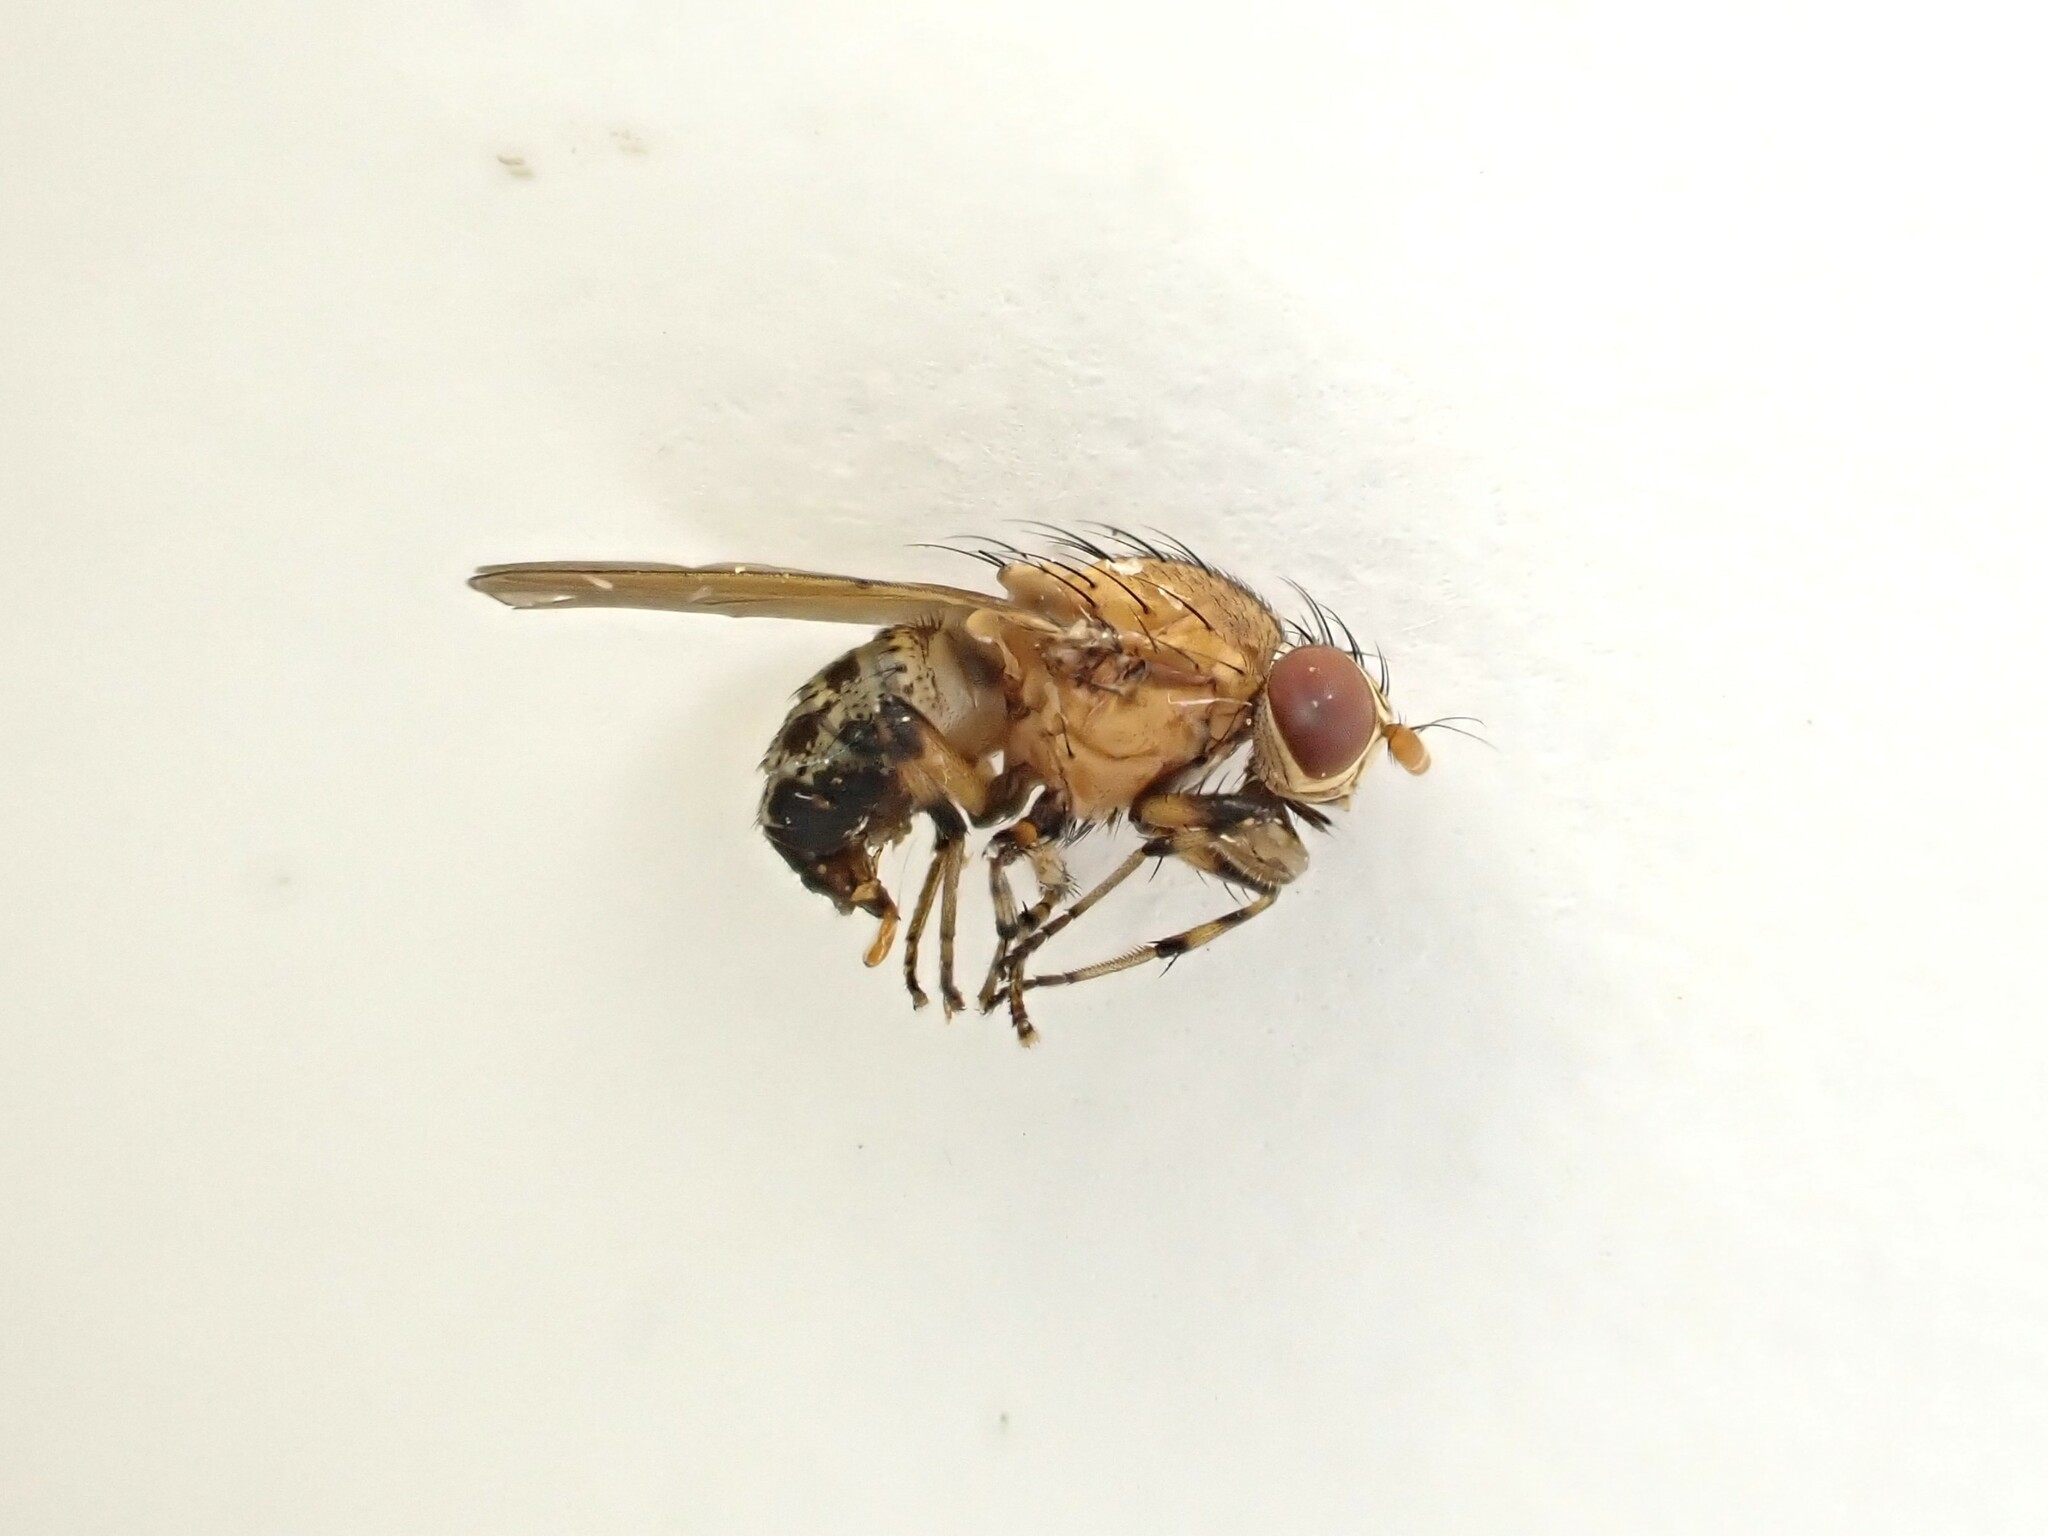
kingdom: Animalia
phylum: Arthropoda
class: Insecta
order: Diptera
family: Lauxaniidae
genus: Sapromyza
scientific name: Sapromyza neozelandica
